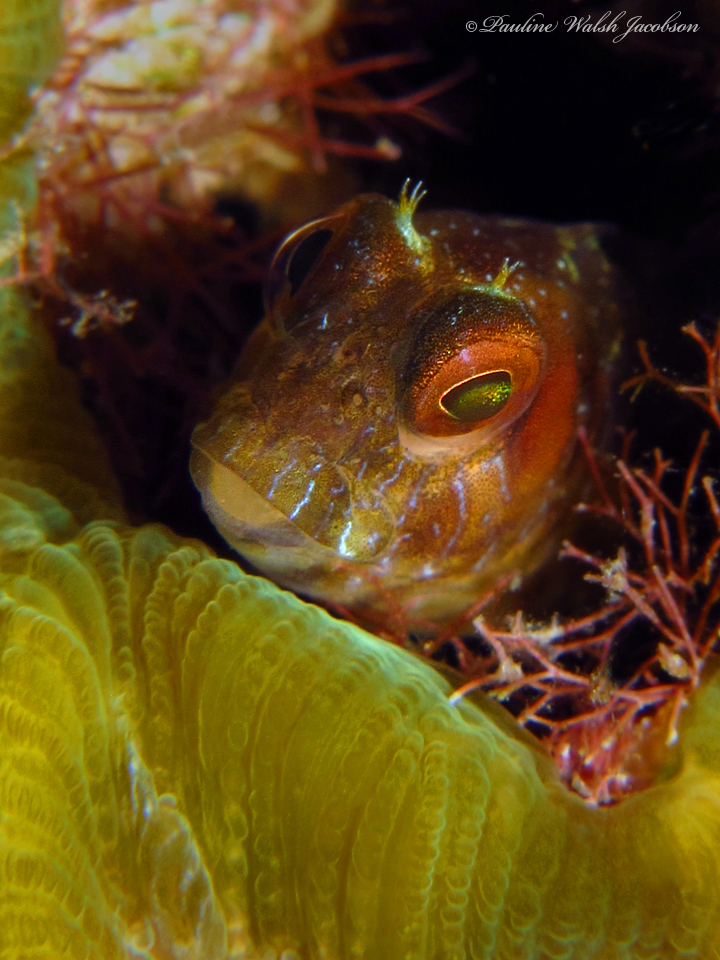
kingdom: Animalia
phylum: Chordata
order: Perciformes
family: Blenniidae
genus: Parablennius
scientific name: Parablennius marmoreus
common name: Seaweed blenny
